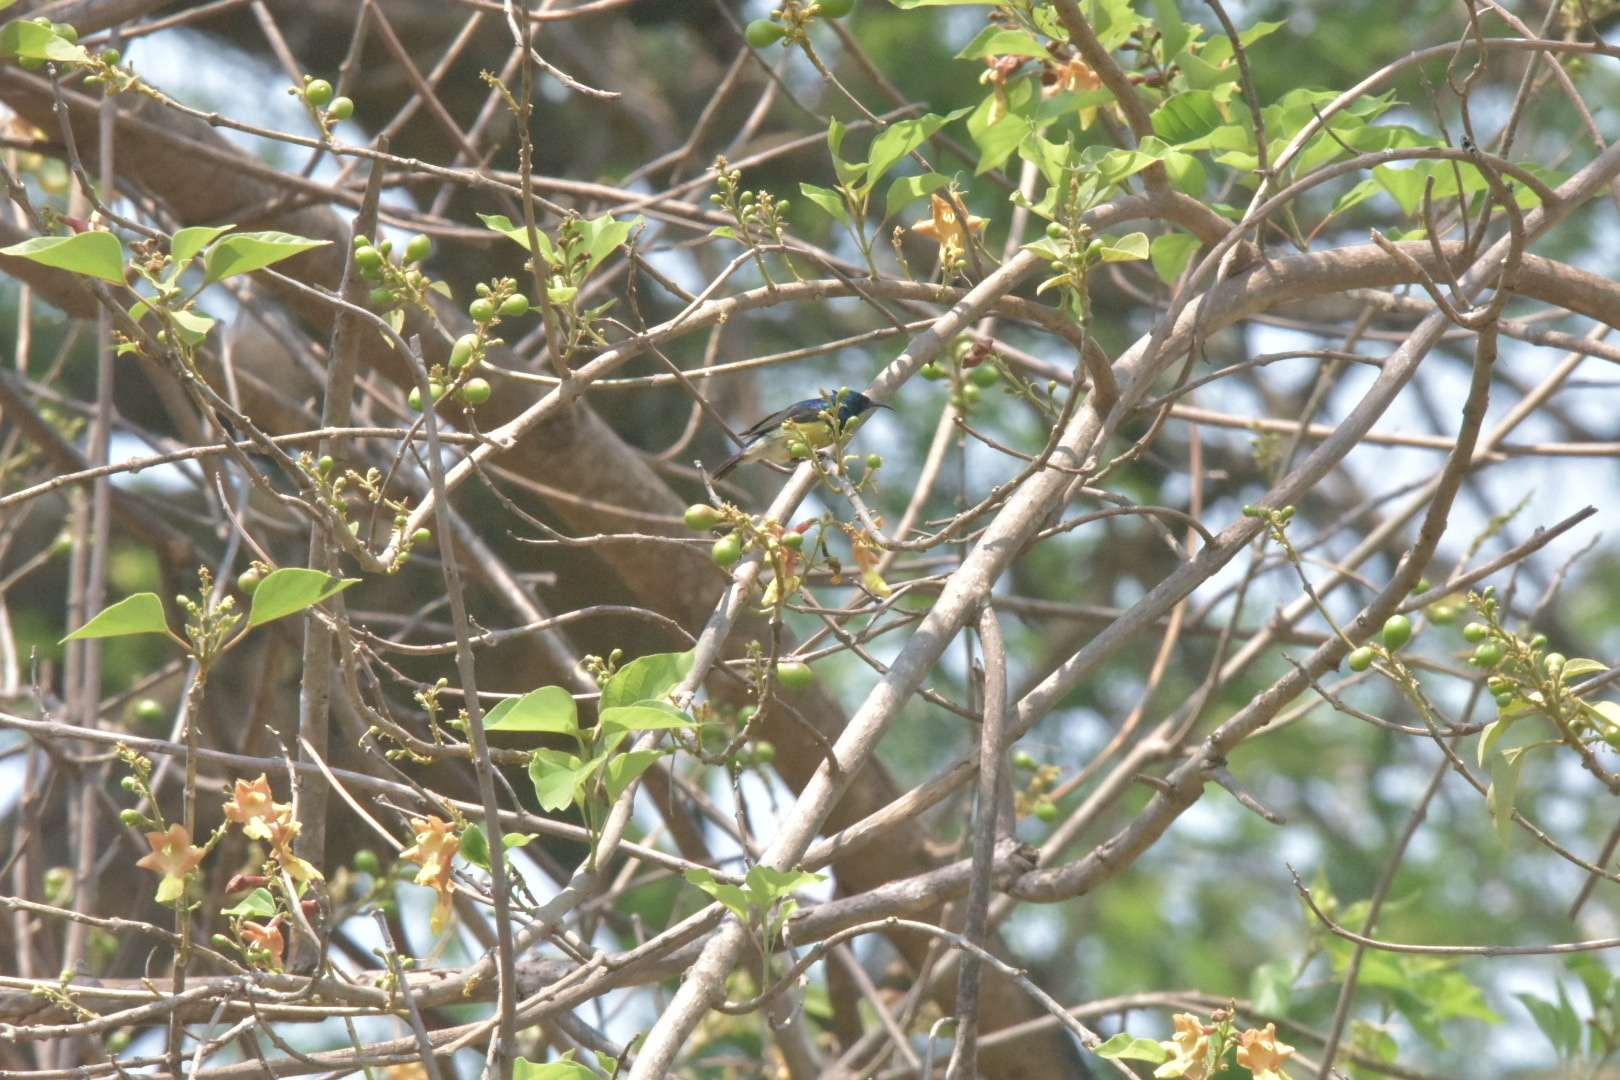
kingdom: Animalia
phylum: Chordata
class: Aves
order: Passeriformes
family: Nectariniidae
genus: Cinnyris
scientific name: Cinnyris venustus
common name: Variable sunbird
